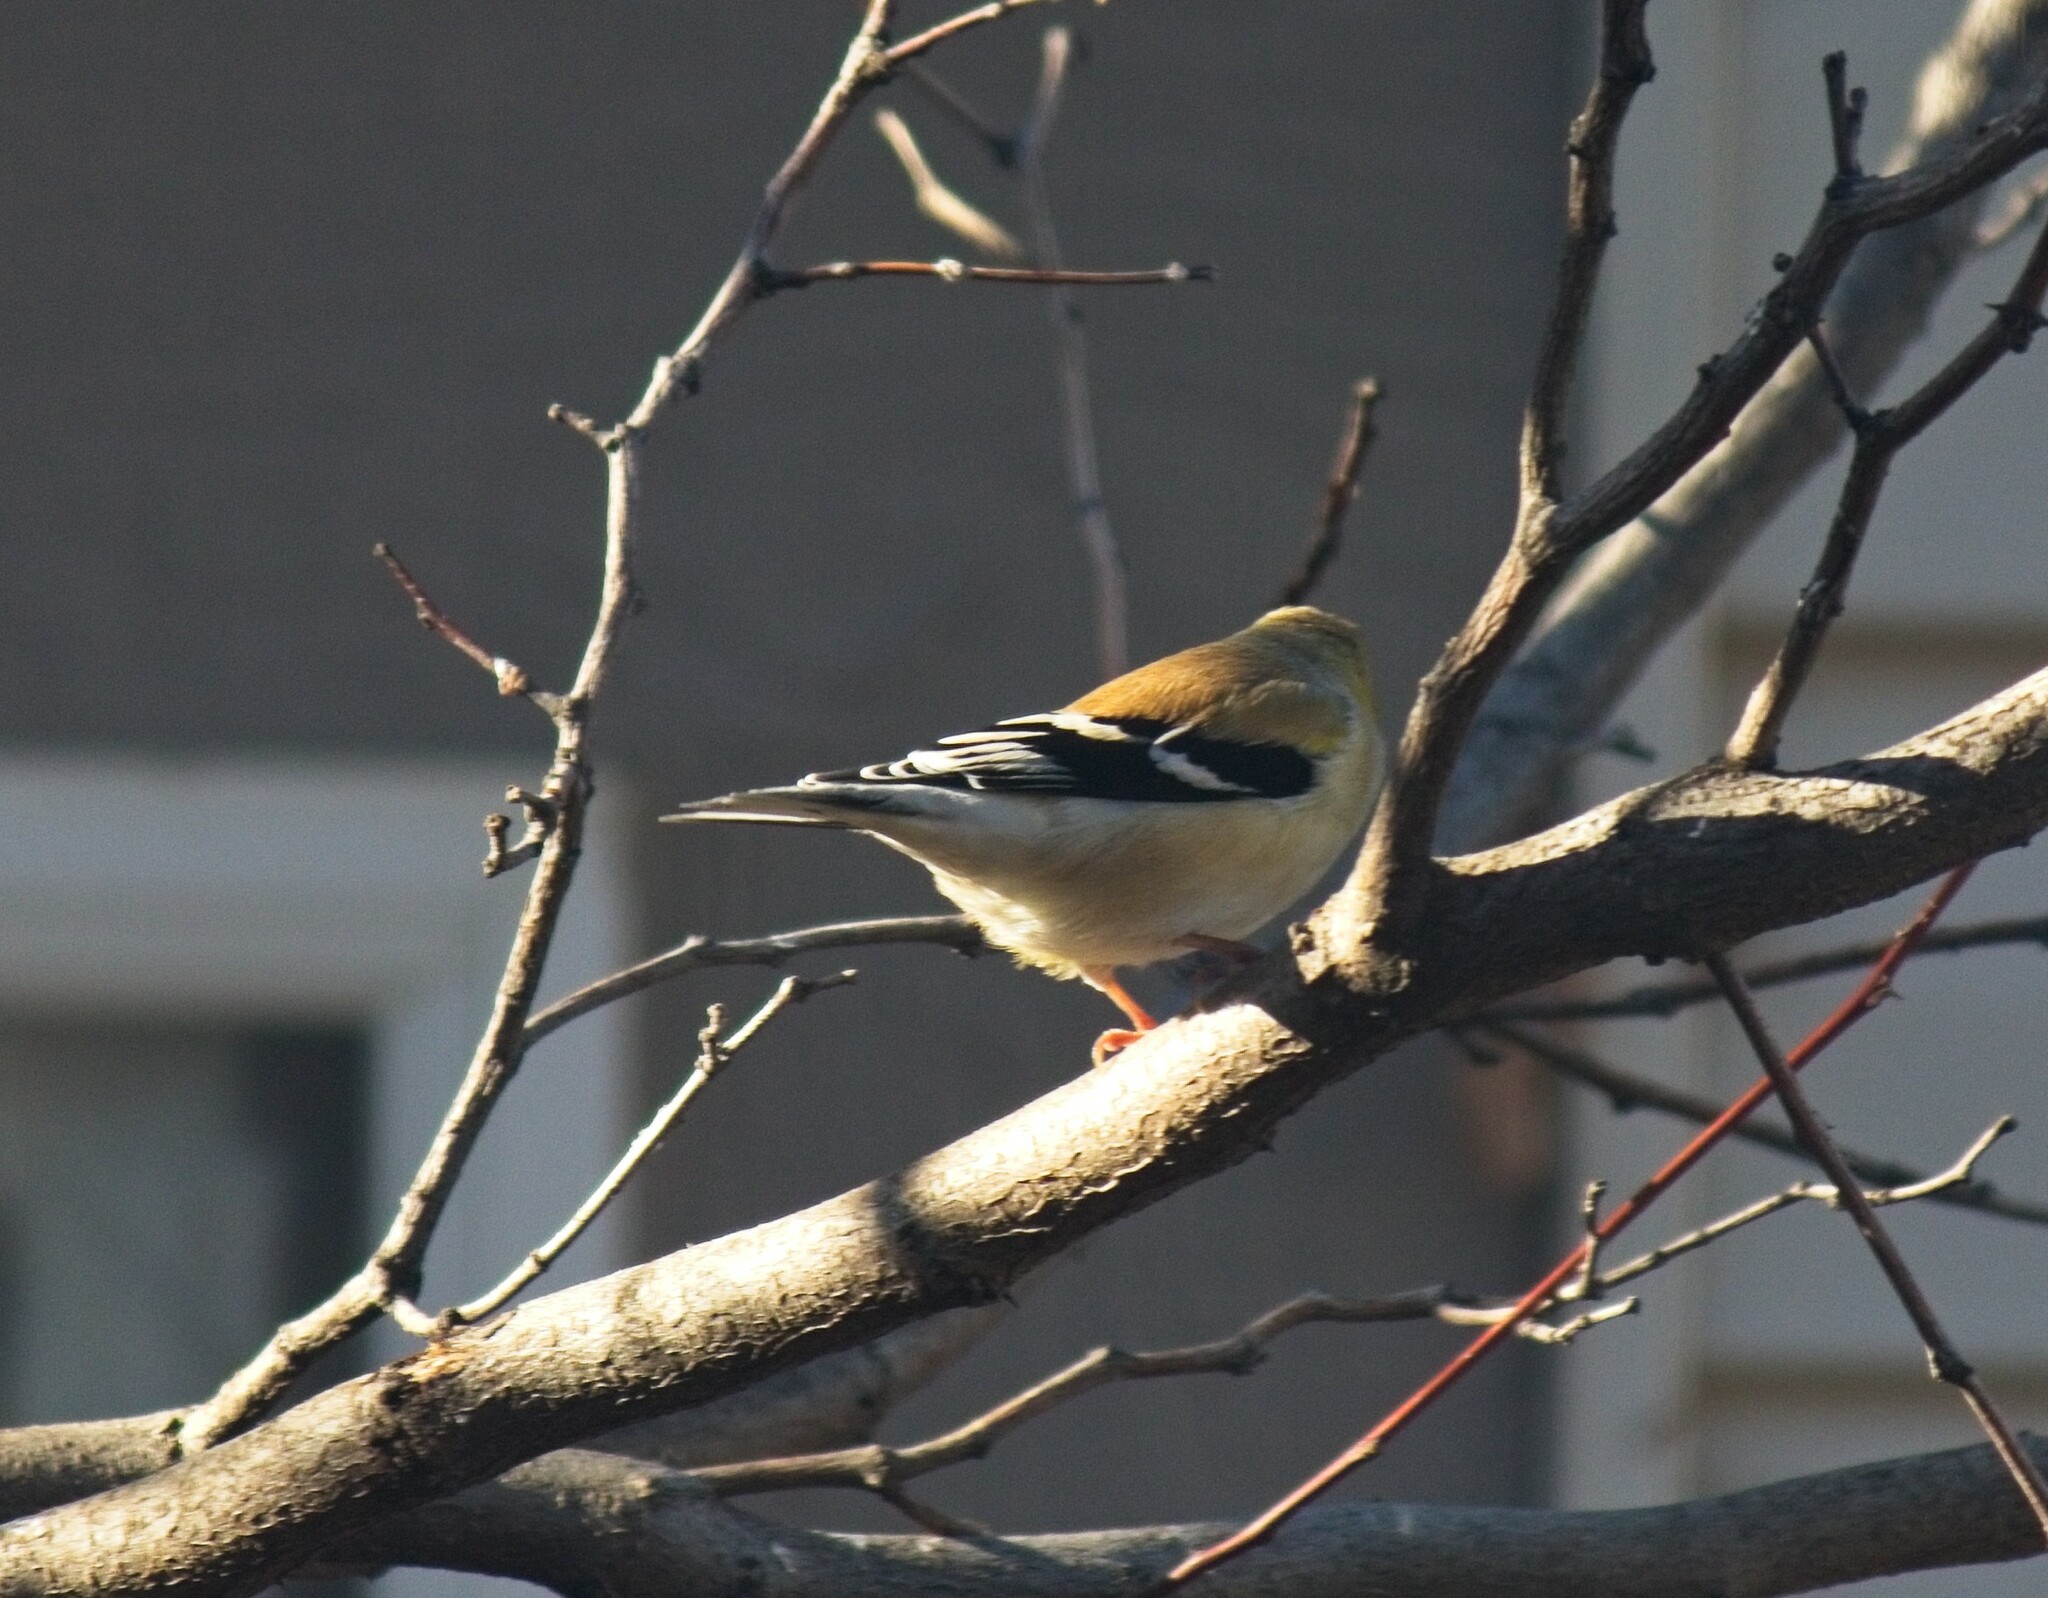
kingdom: Animalia
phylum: Chordata
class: Aves
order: Passeriformes
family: Fringillidae
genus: Spinus
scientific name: Spinus tristis
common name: American goldfinch
